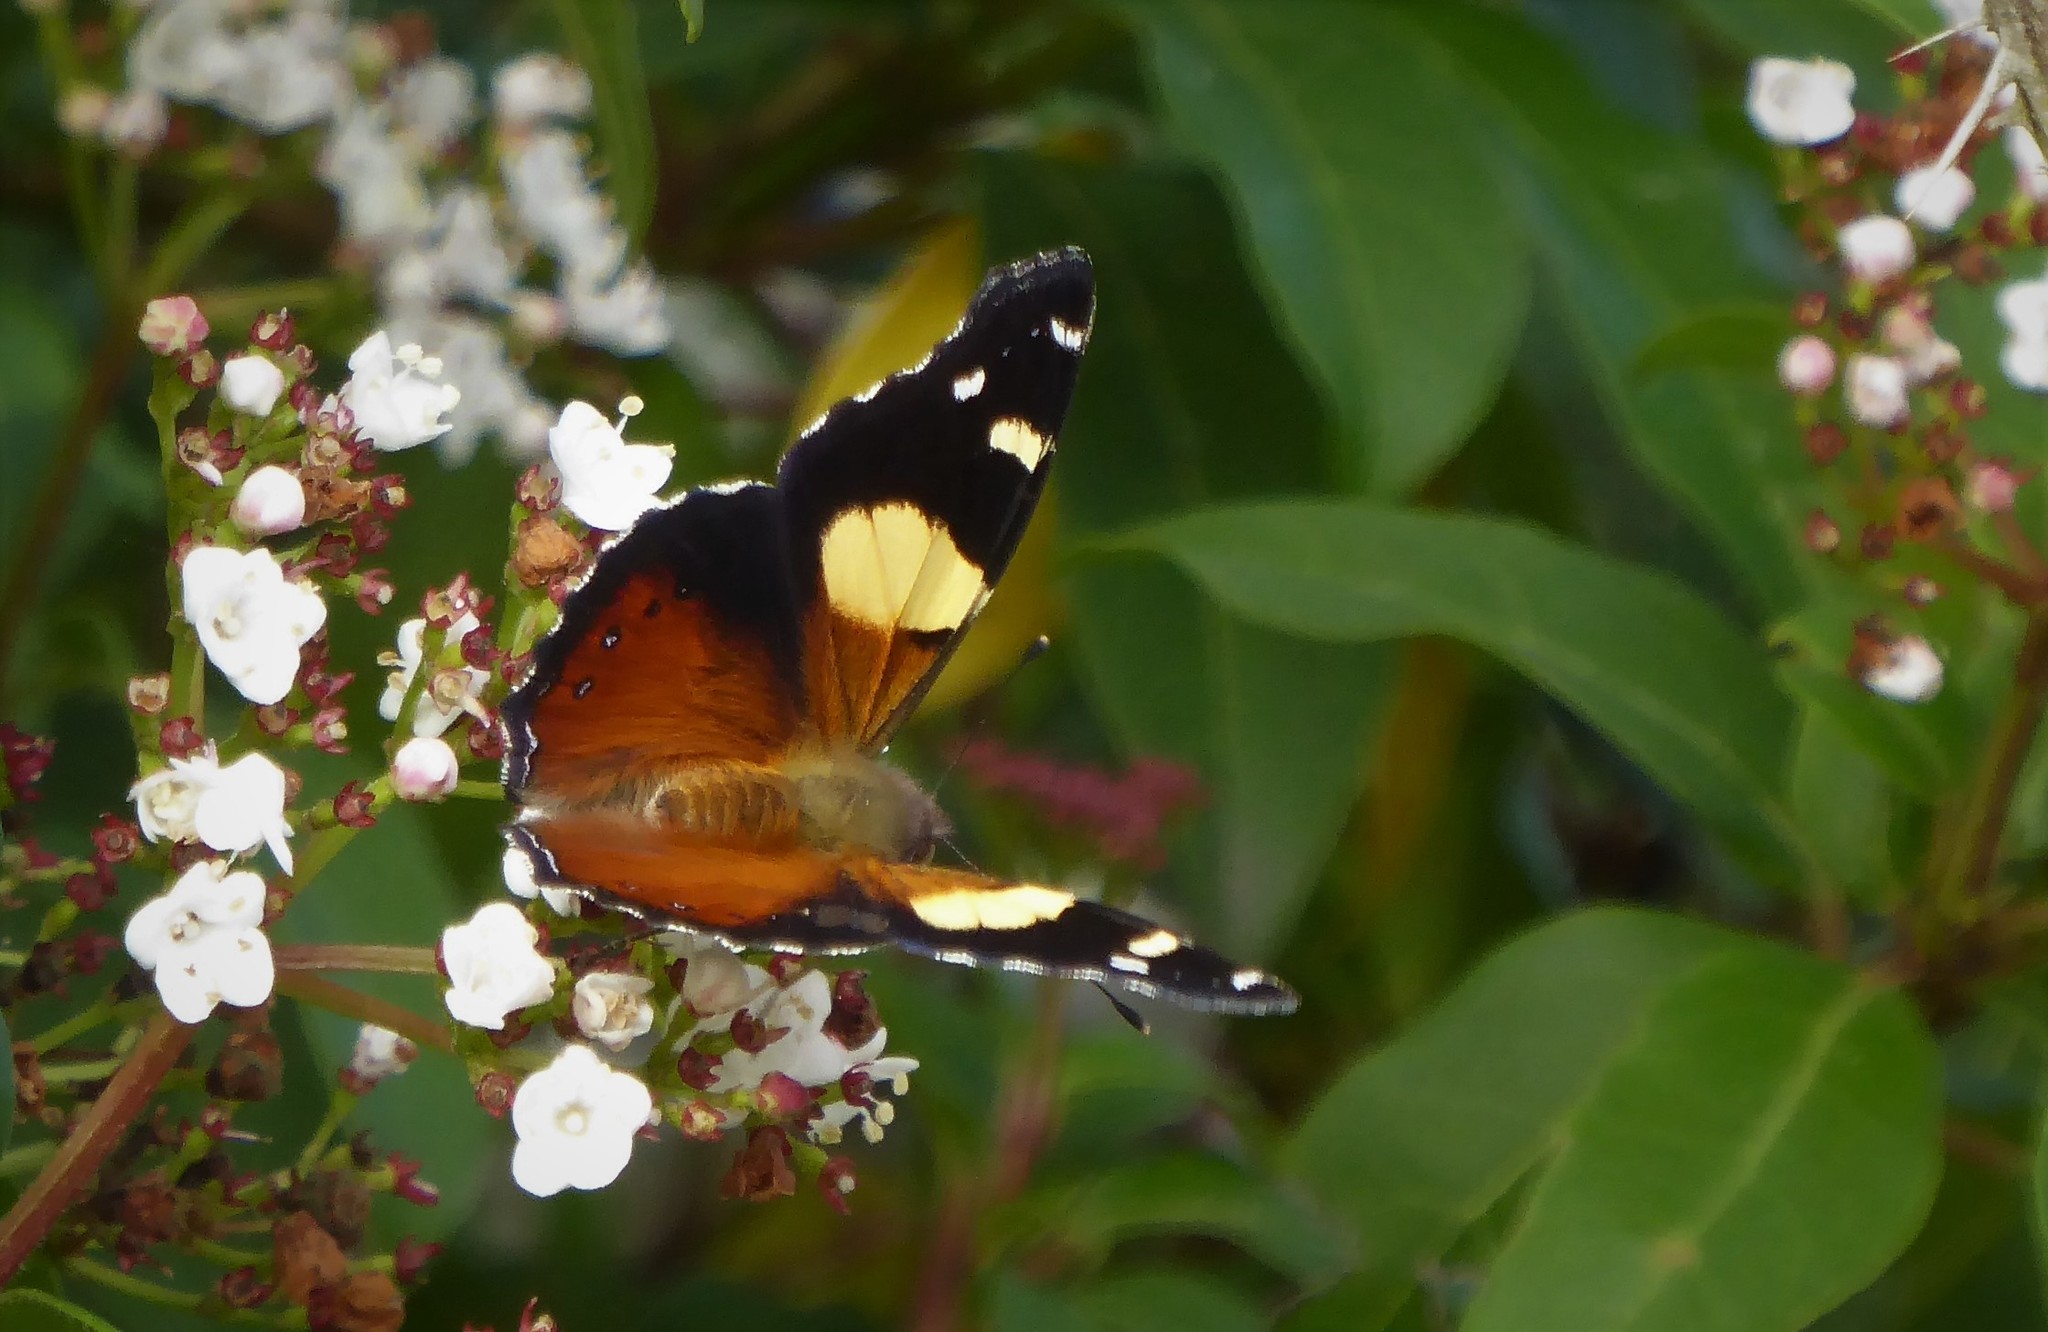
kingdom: Animalia
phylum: Arthropoda
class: Insecta
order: Lepidoptera
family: Nymphalidae
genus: Vanessa
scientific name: Vanessa itea
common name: Yellow admiral
